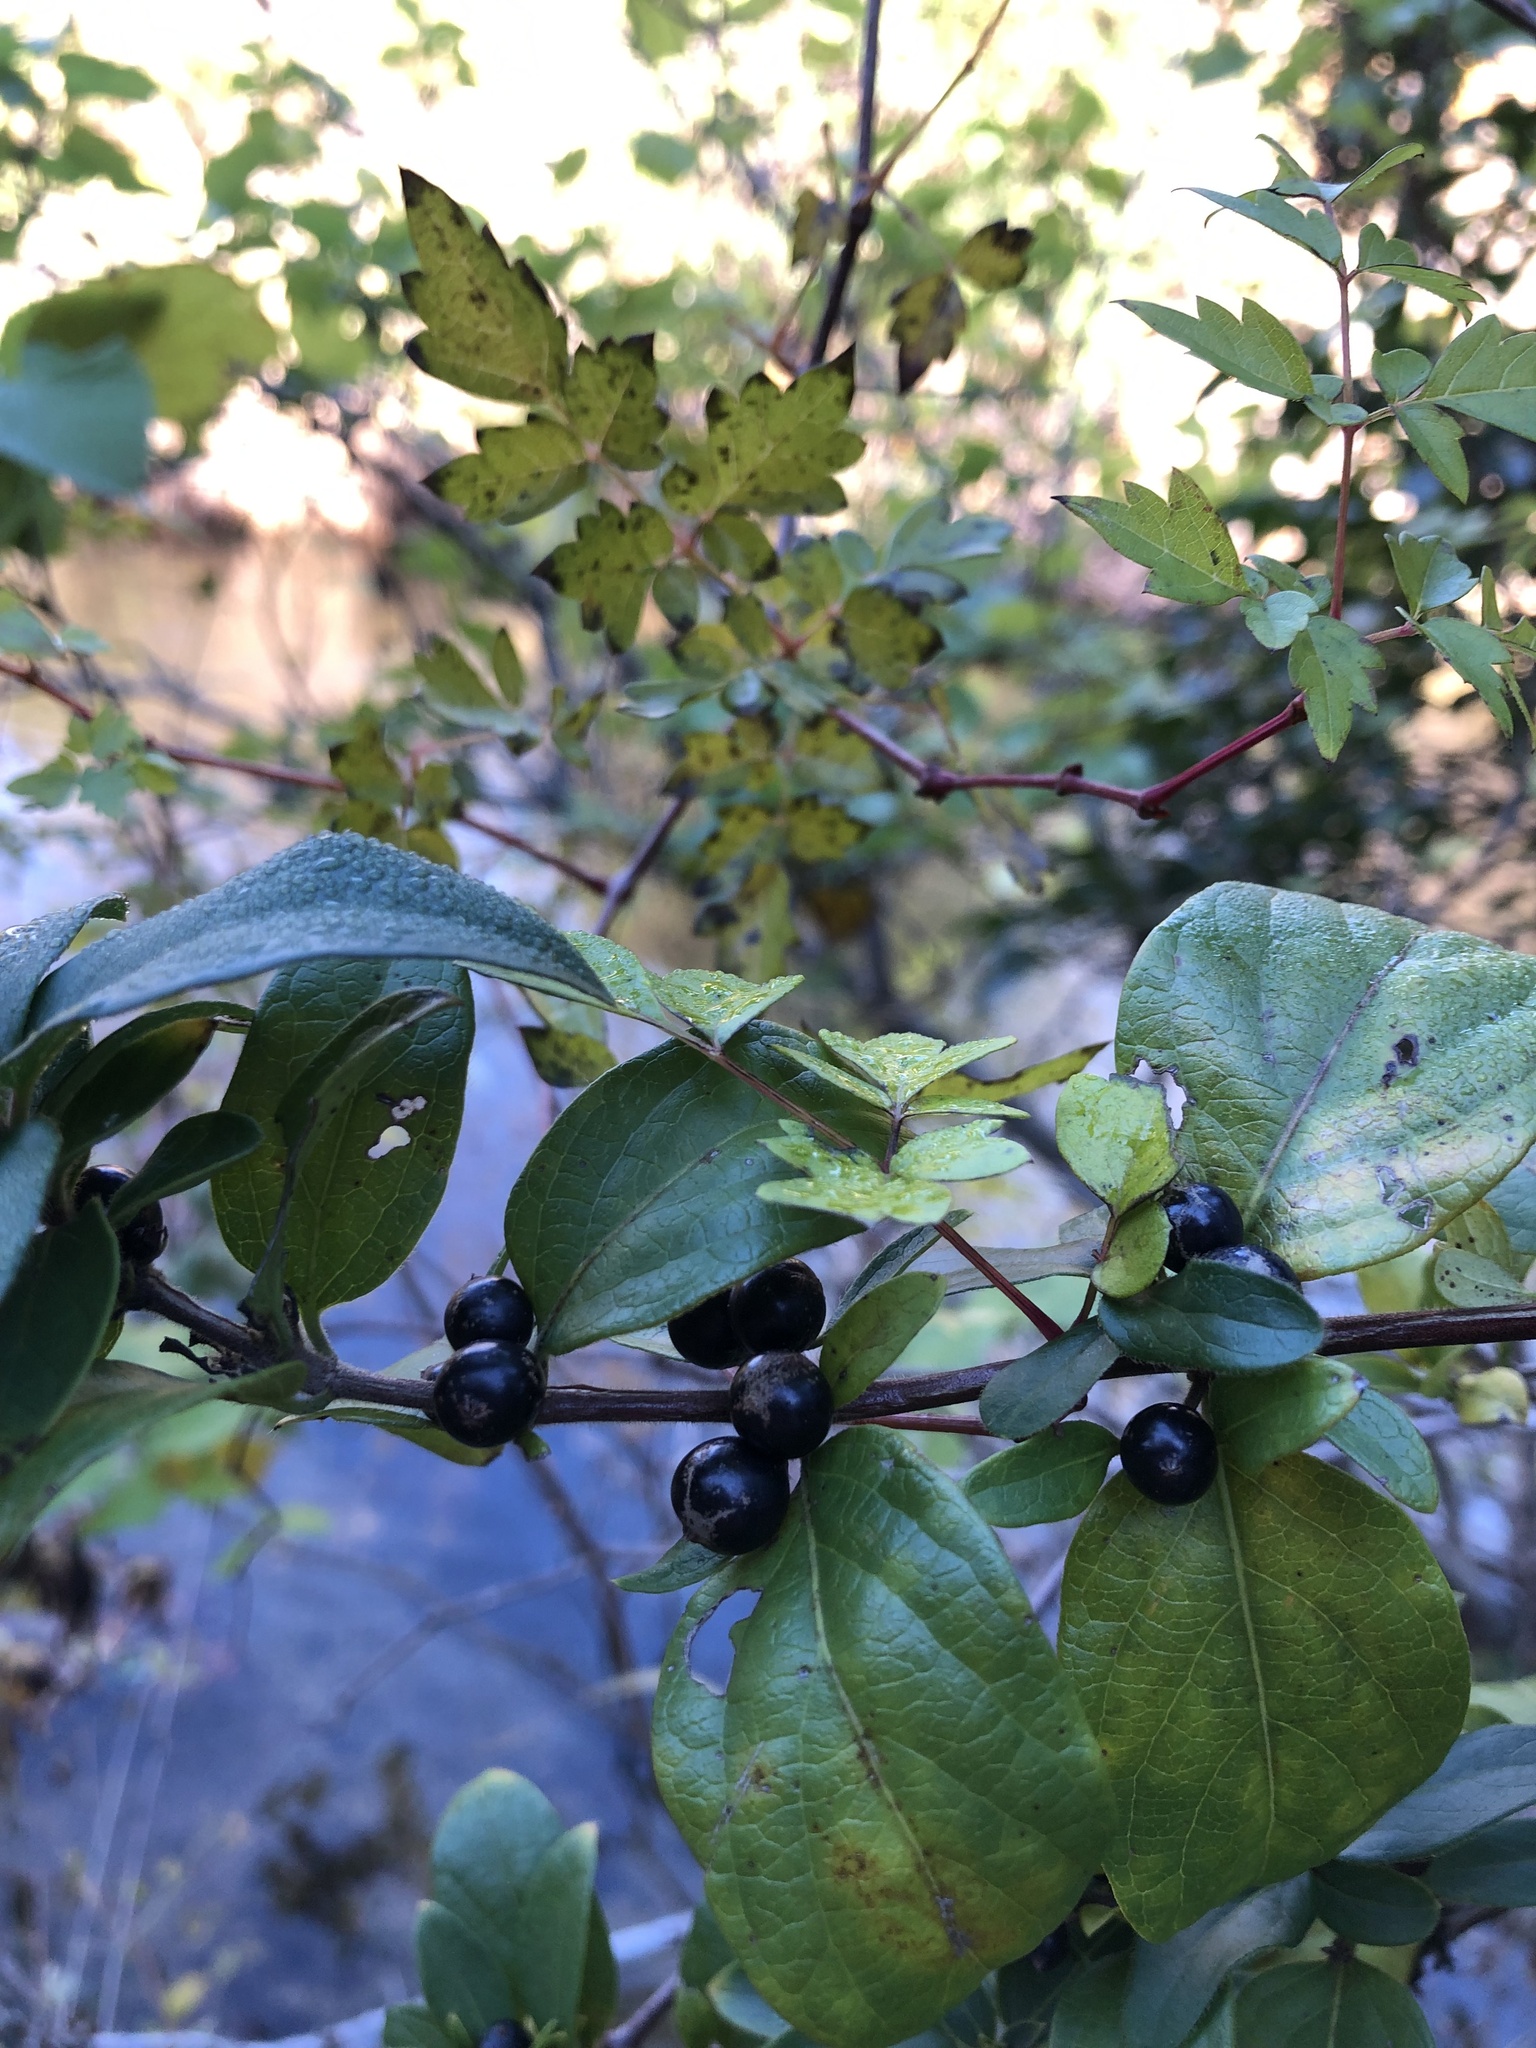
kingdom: Plantae
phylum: Tracheophyta
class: Magnoliopsida
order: Dipsacales
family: Caprifoliaceae
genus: Lonicera
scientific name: Lonicera japonica
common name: Japanese honeysuckle
